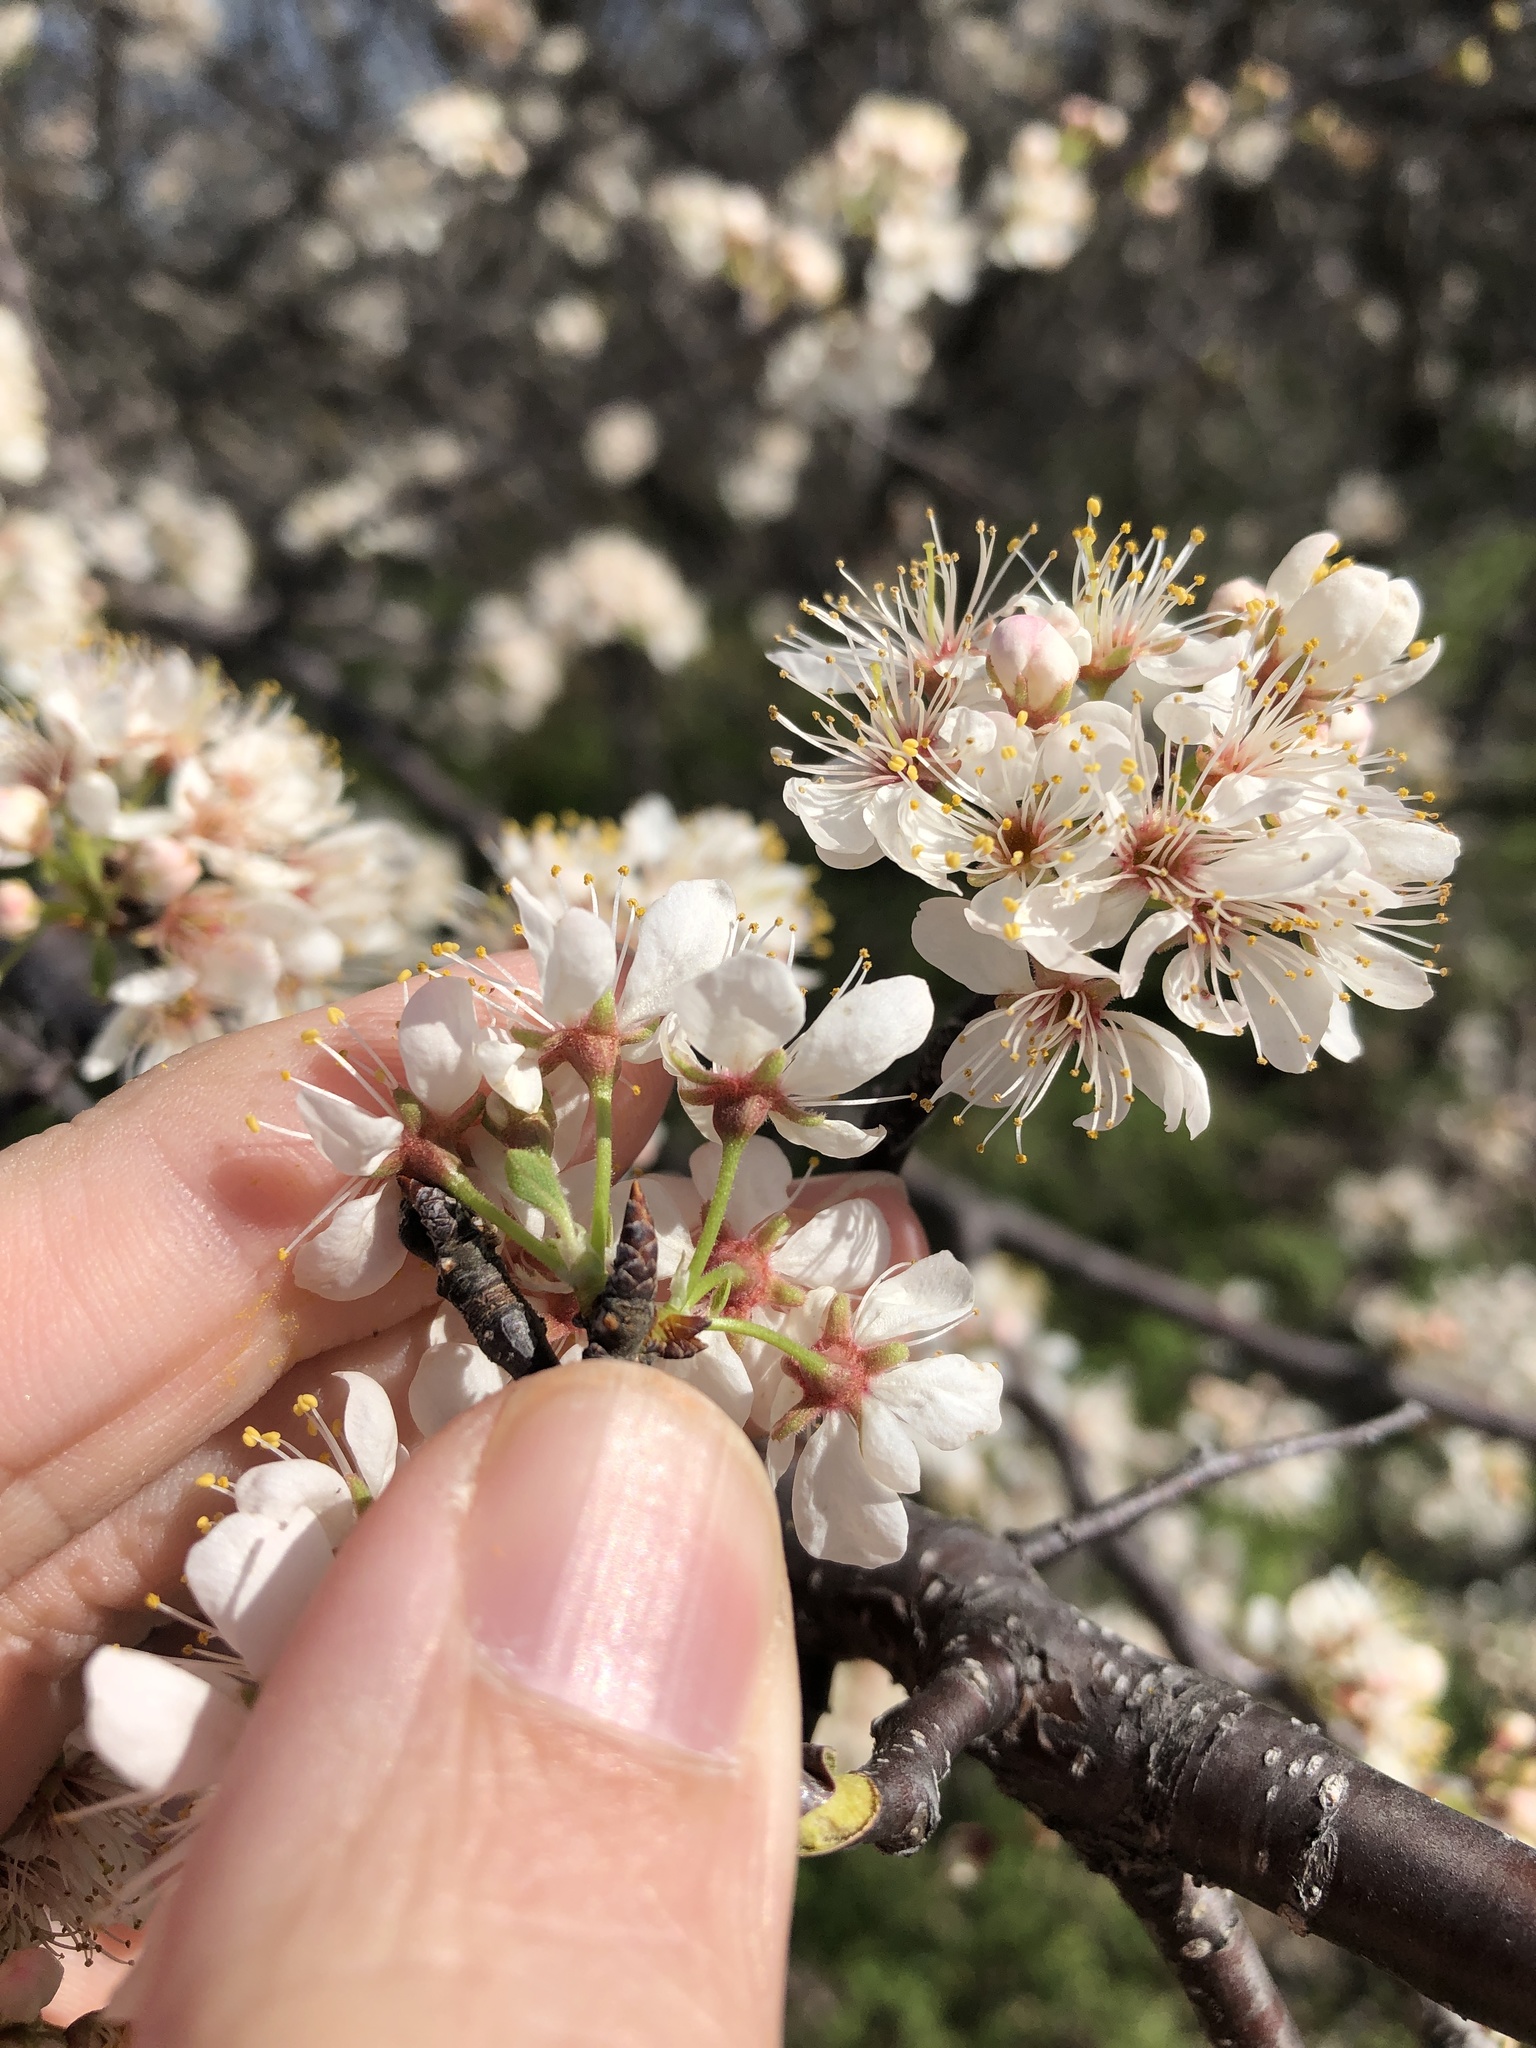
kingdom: Plantae
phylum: Tracheophyta
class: Magnoliopsida
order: Rosales
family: Rosaceae
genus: Prunus
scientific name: Prunus mexicana
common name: Mexican plum
